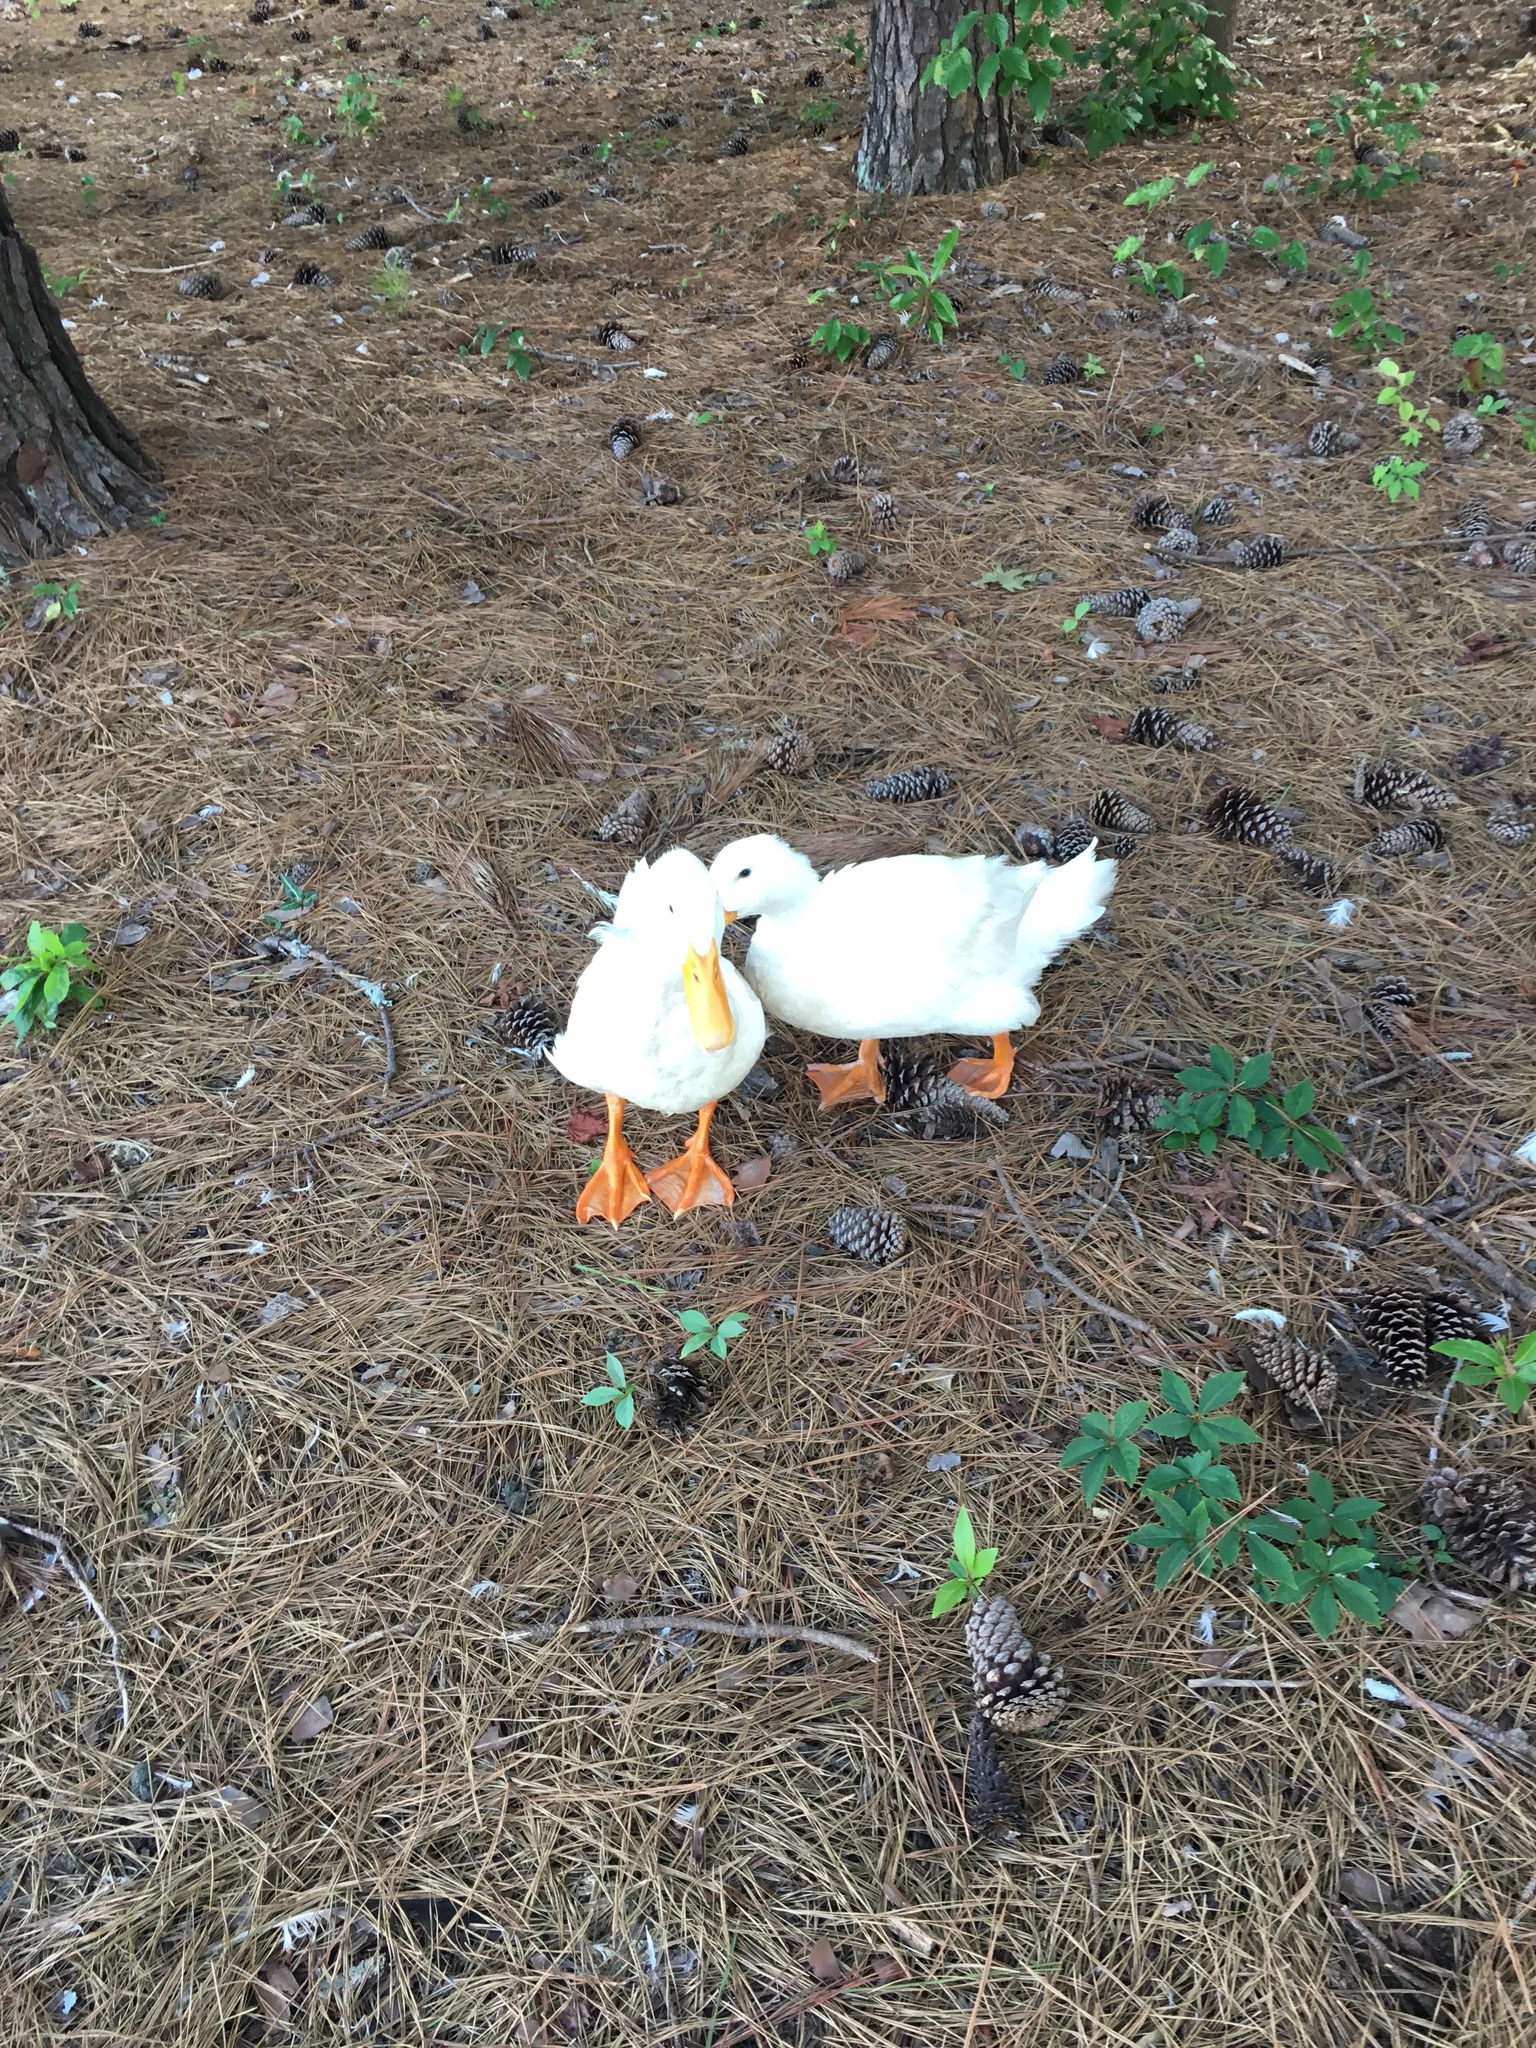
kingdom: Animalia
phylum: Chordata
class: Aves
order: Anseriformes
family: Anatidae
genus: Anas
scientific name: Anas platyrhynchos
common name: Mallard
